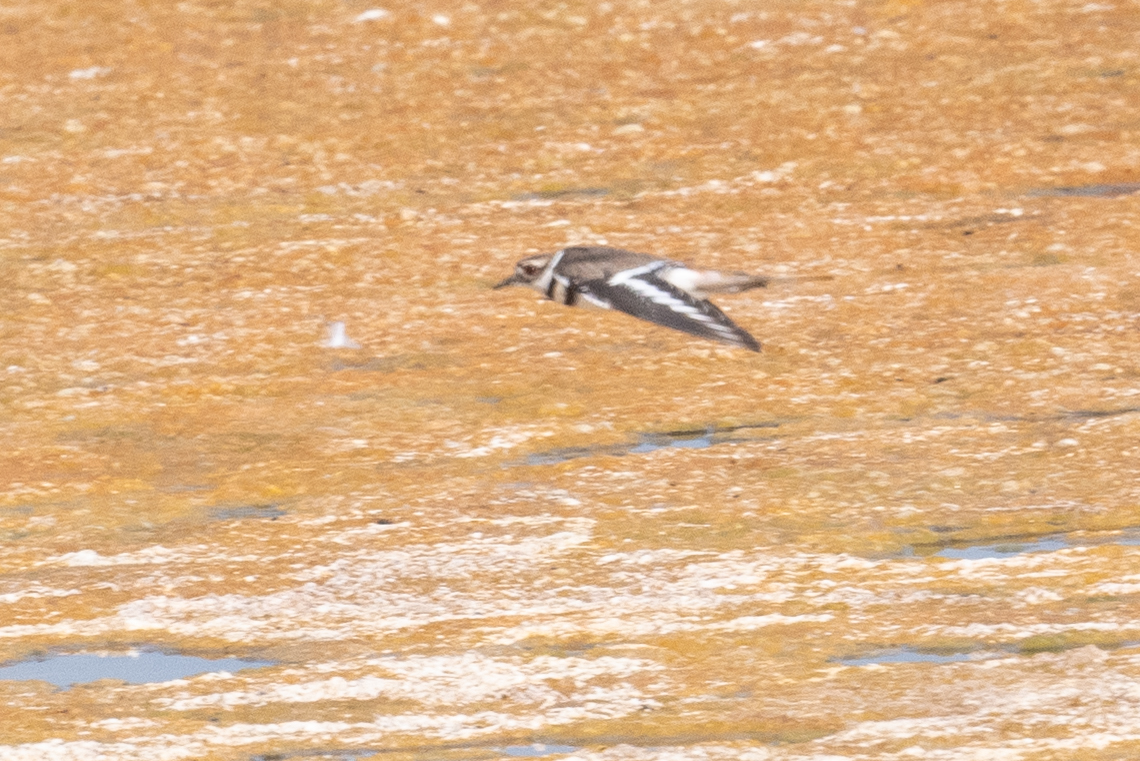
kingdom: Animalia
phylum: Chordata
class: Aves
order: Charadriiformes
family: Charadriidae
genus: Charadrius
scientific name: Charadrius vociferus
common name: Killdeer
